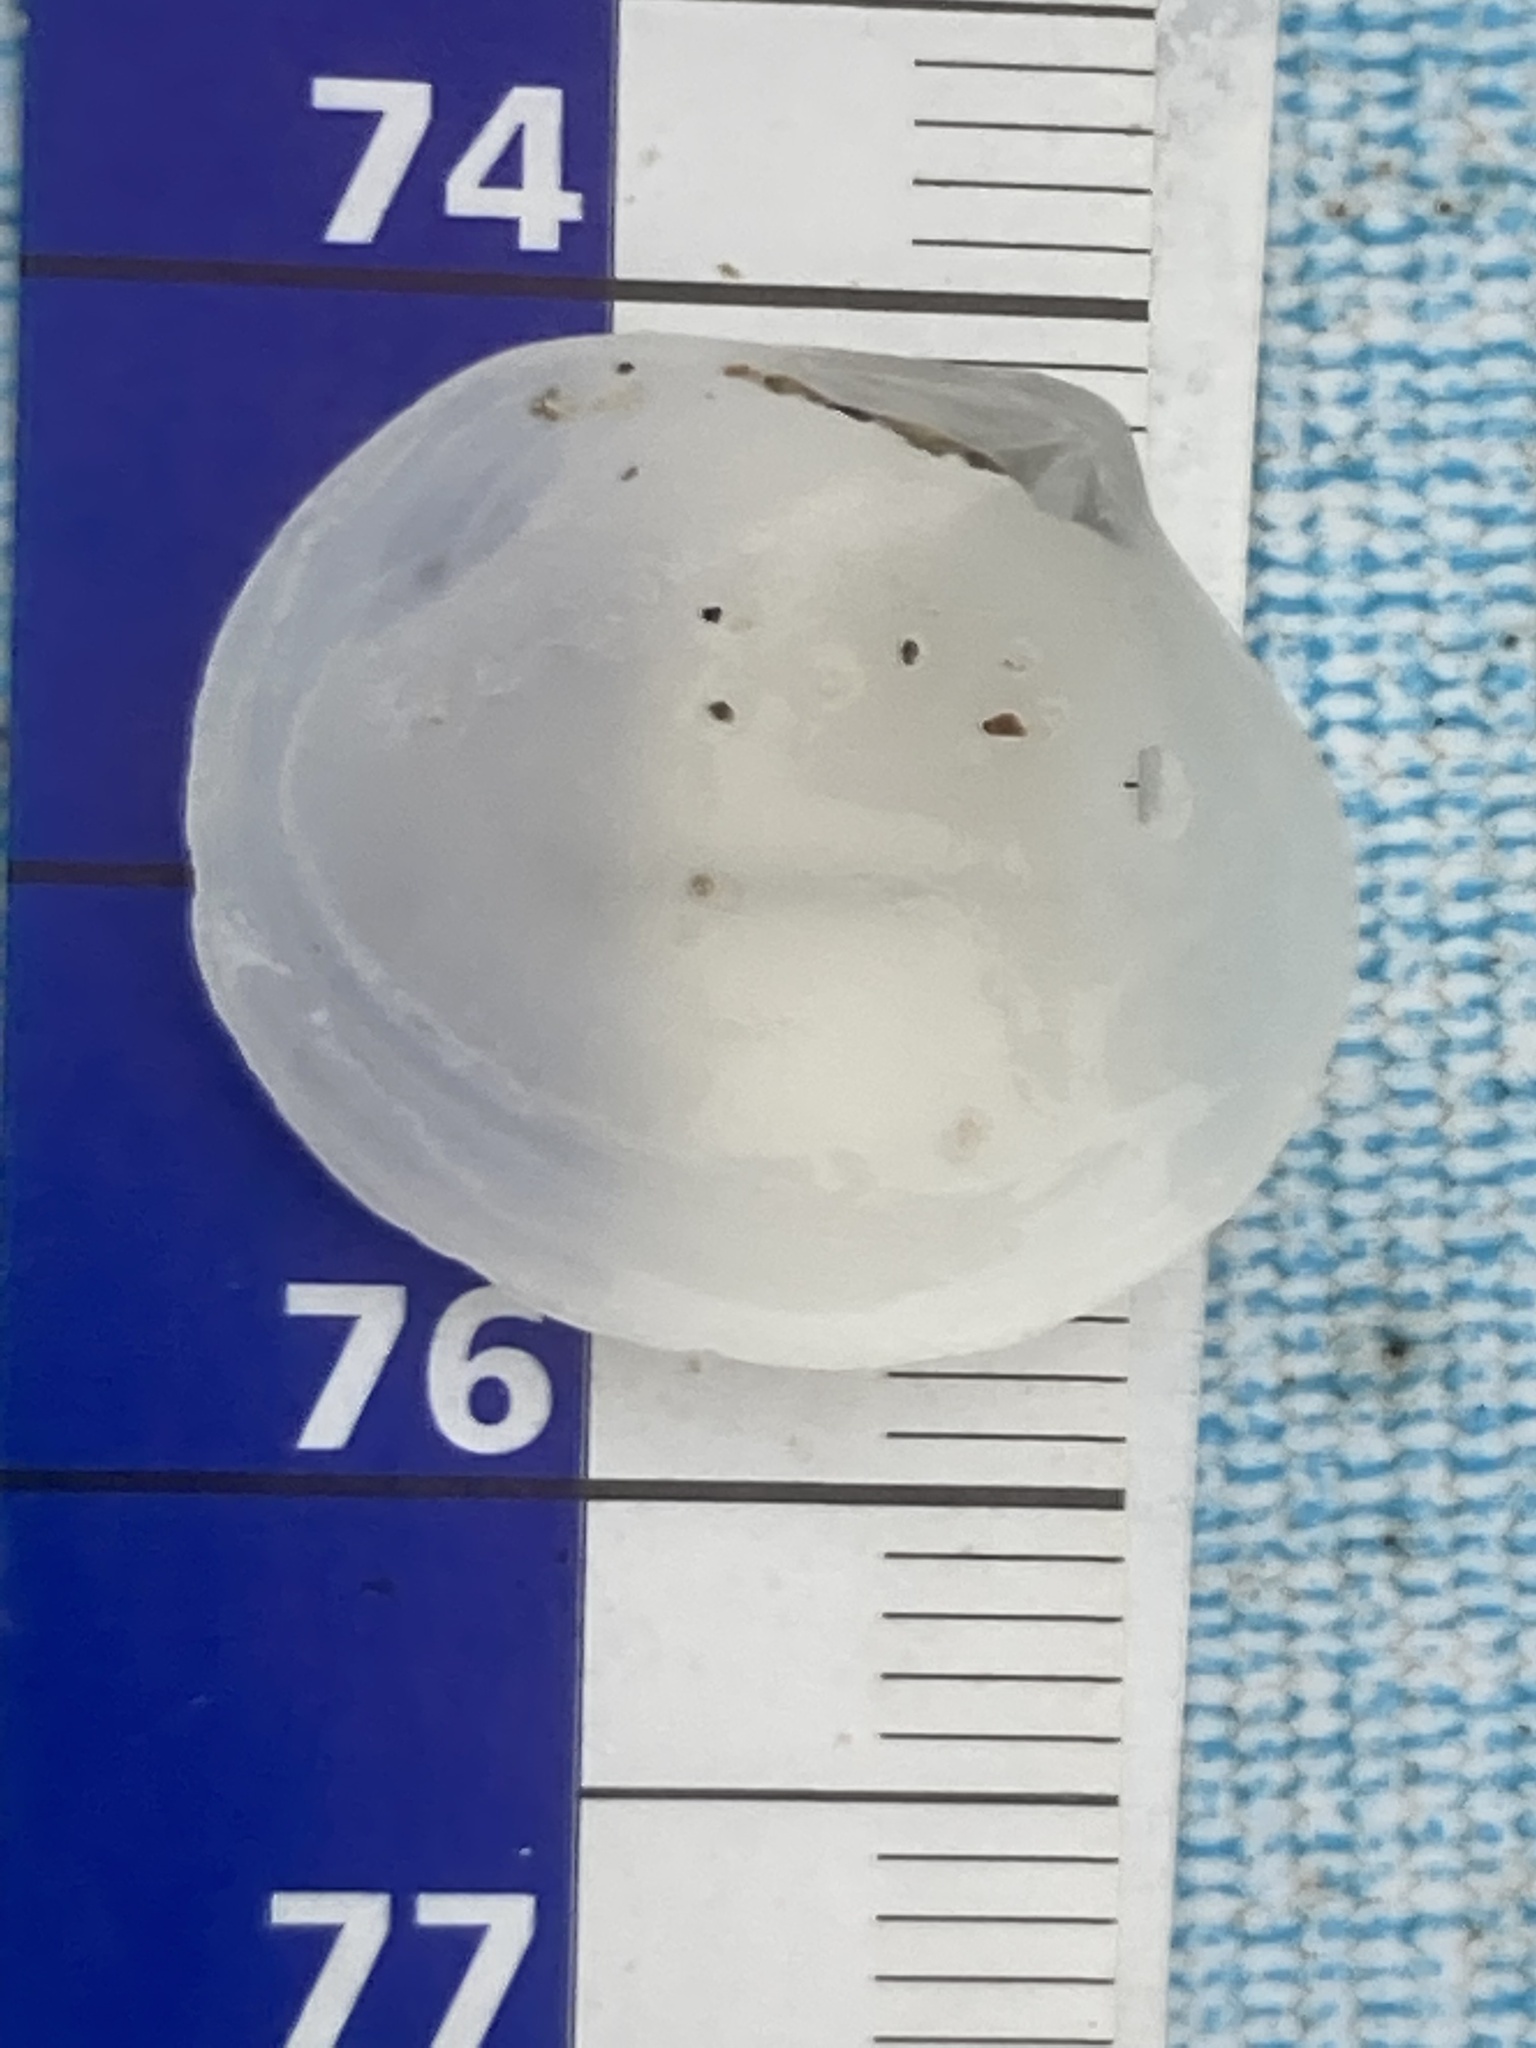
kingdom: Animalia
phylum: Mollusca
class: Bivalvia
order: Venerida
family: Ungulinidae
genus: Diplodonta
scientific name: Diplodonta rotundata
